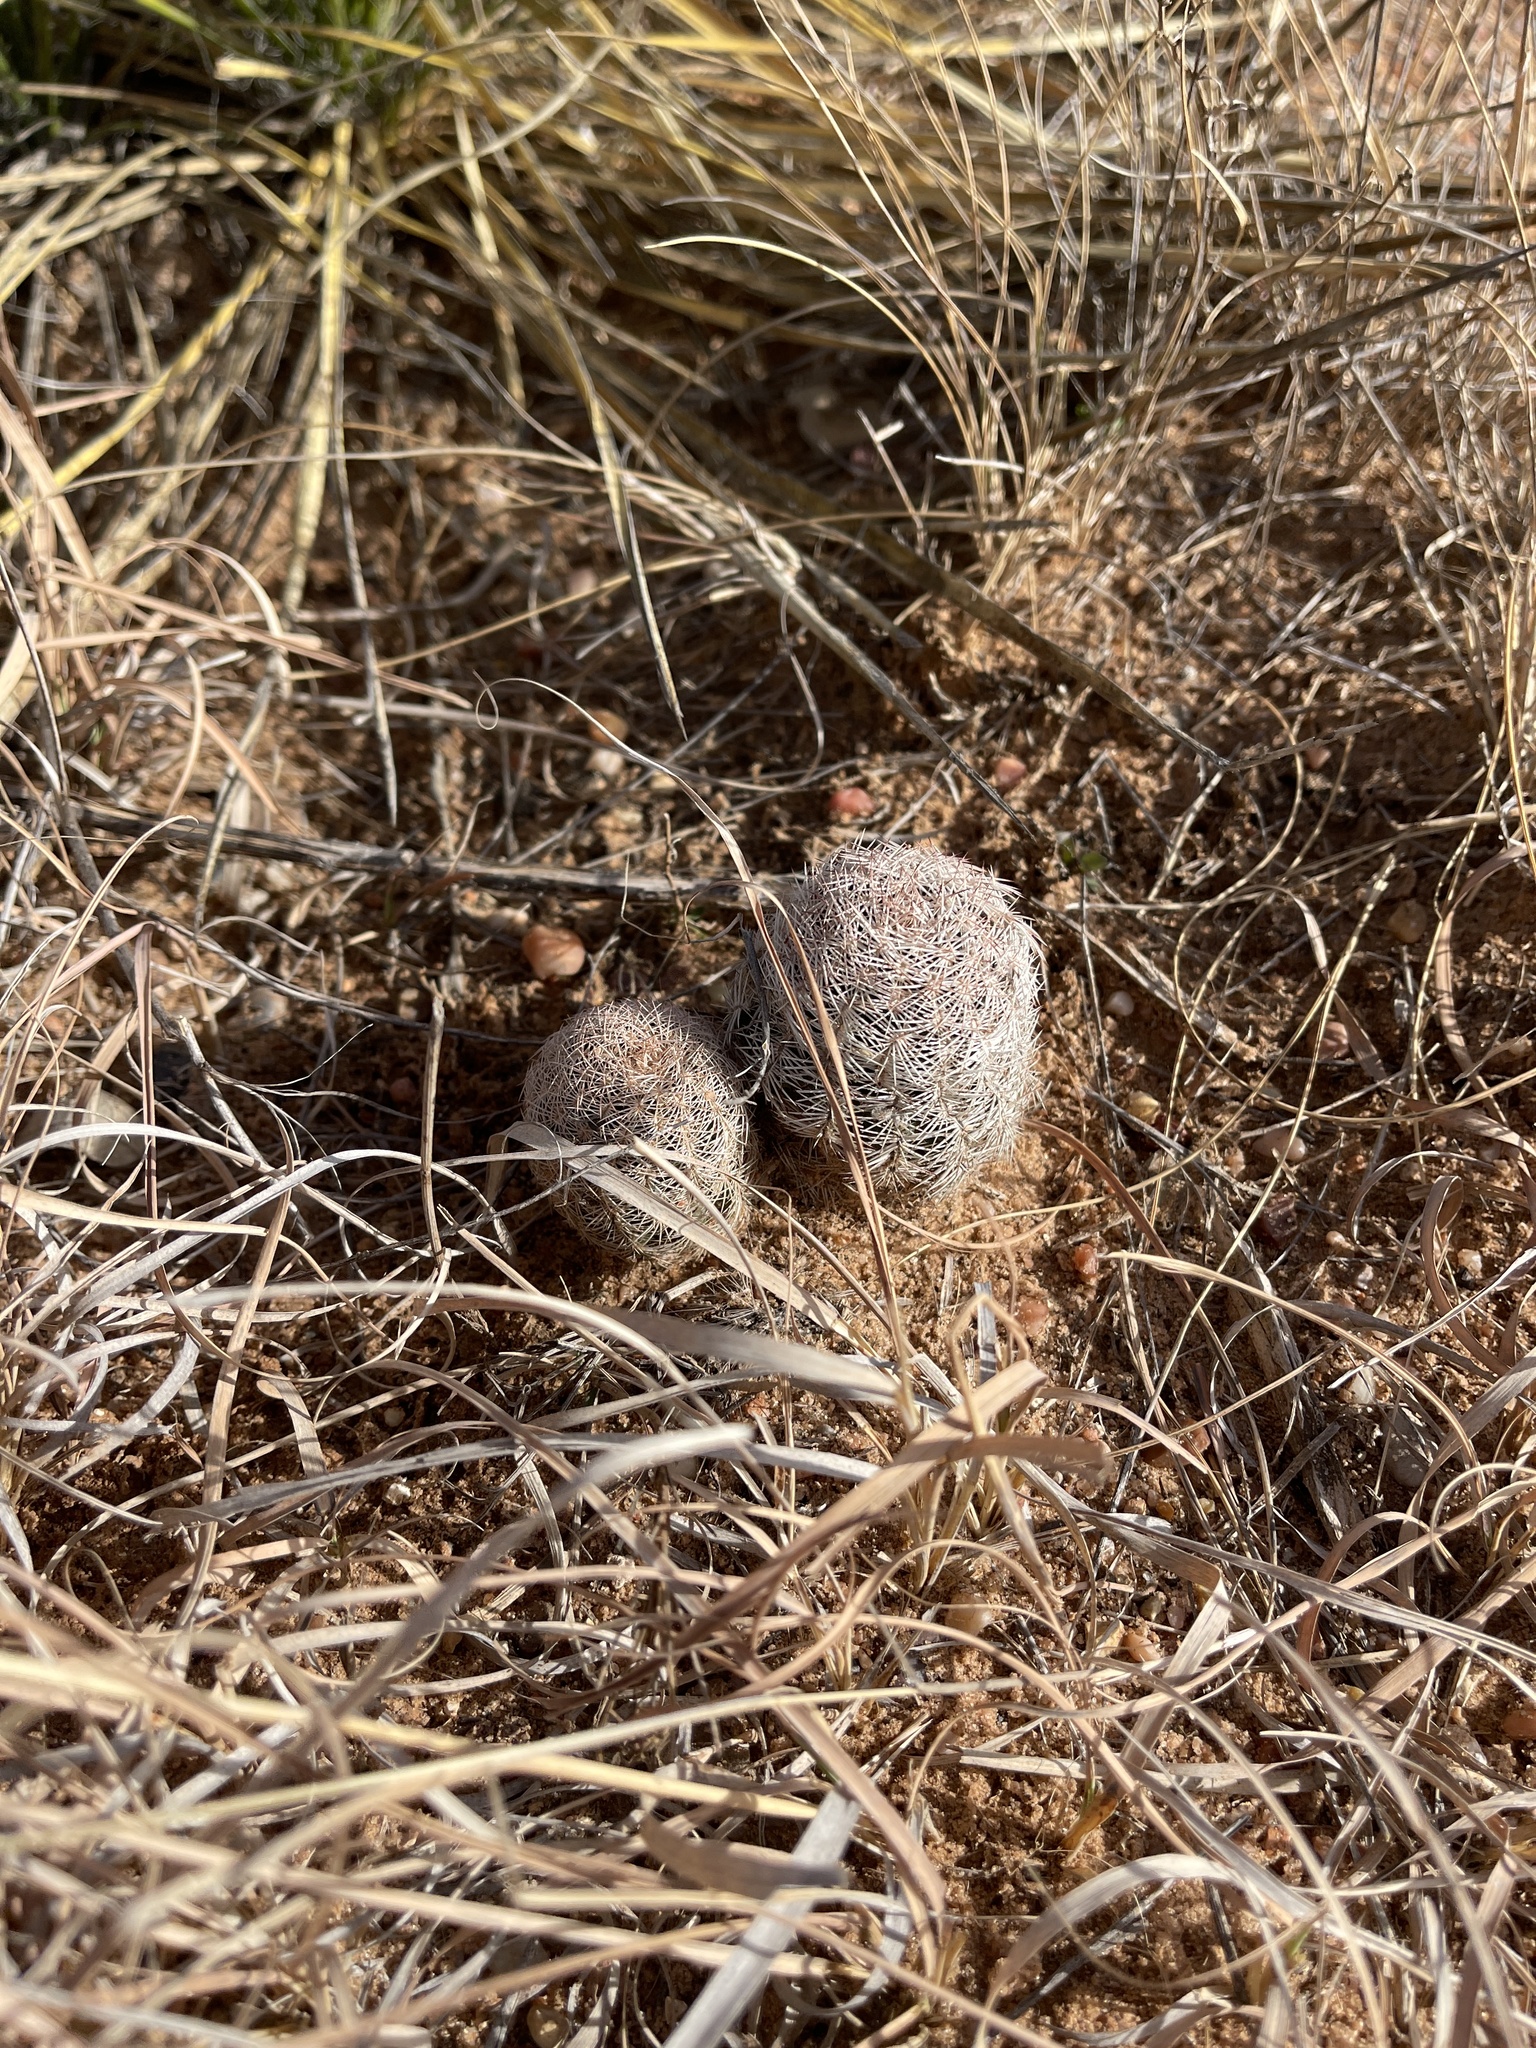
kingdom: Plantae
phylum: Tracheophyta
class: Magnoliopsida
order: Caryophyllales
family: Cactaceae
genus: Echinocereus
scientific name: Echinocereus reichenbachii
